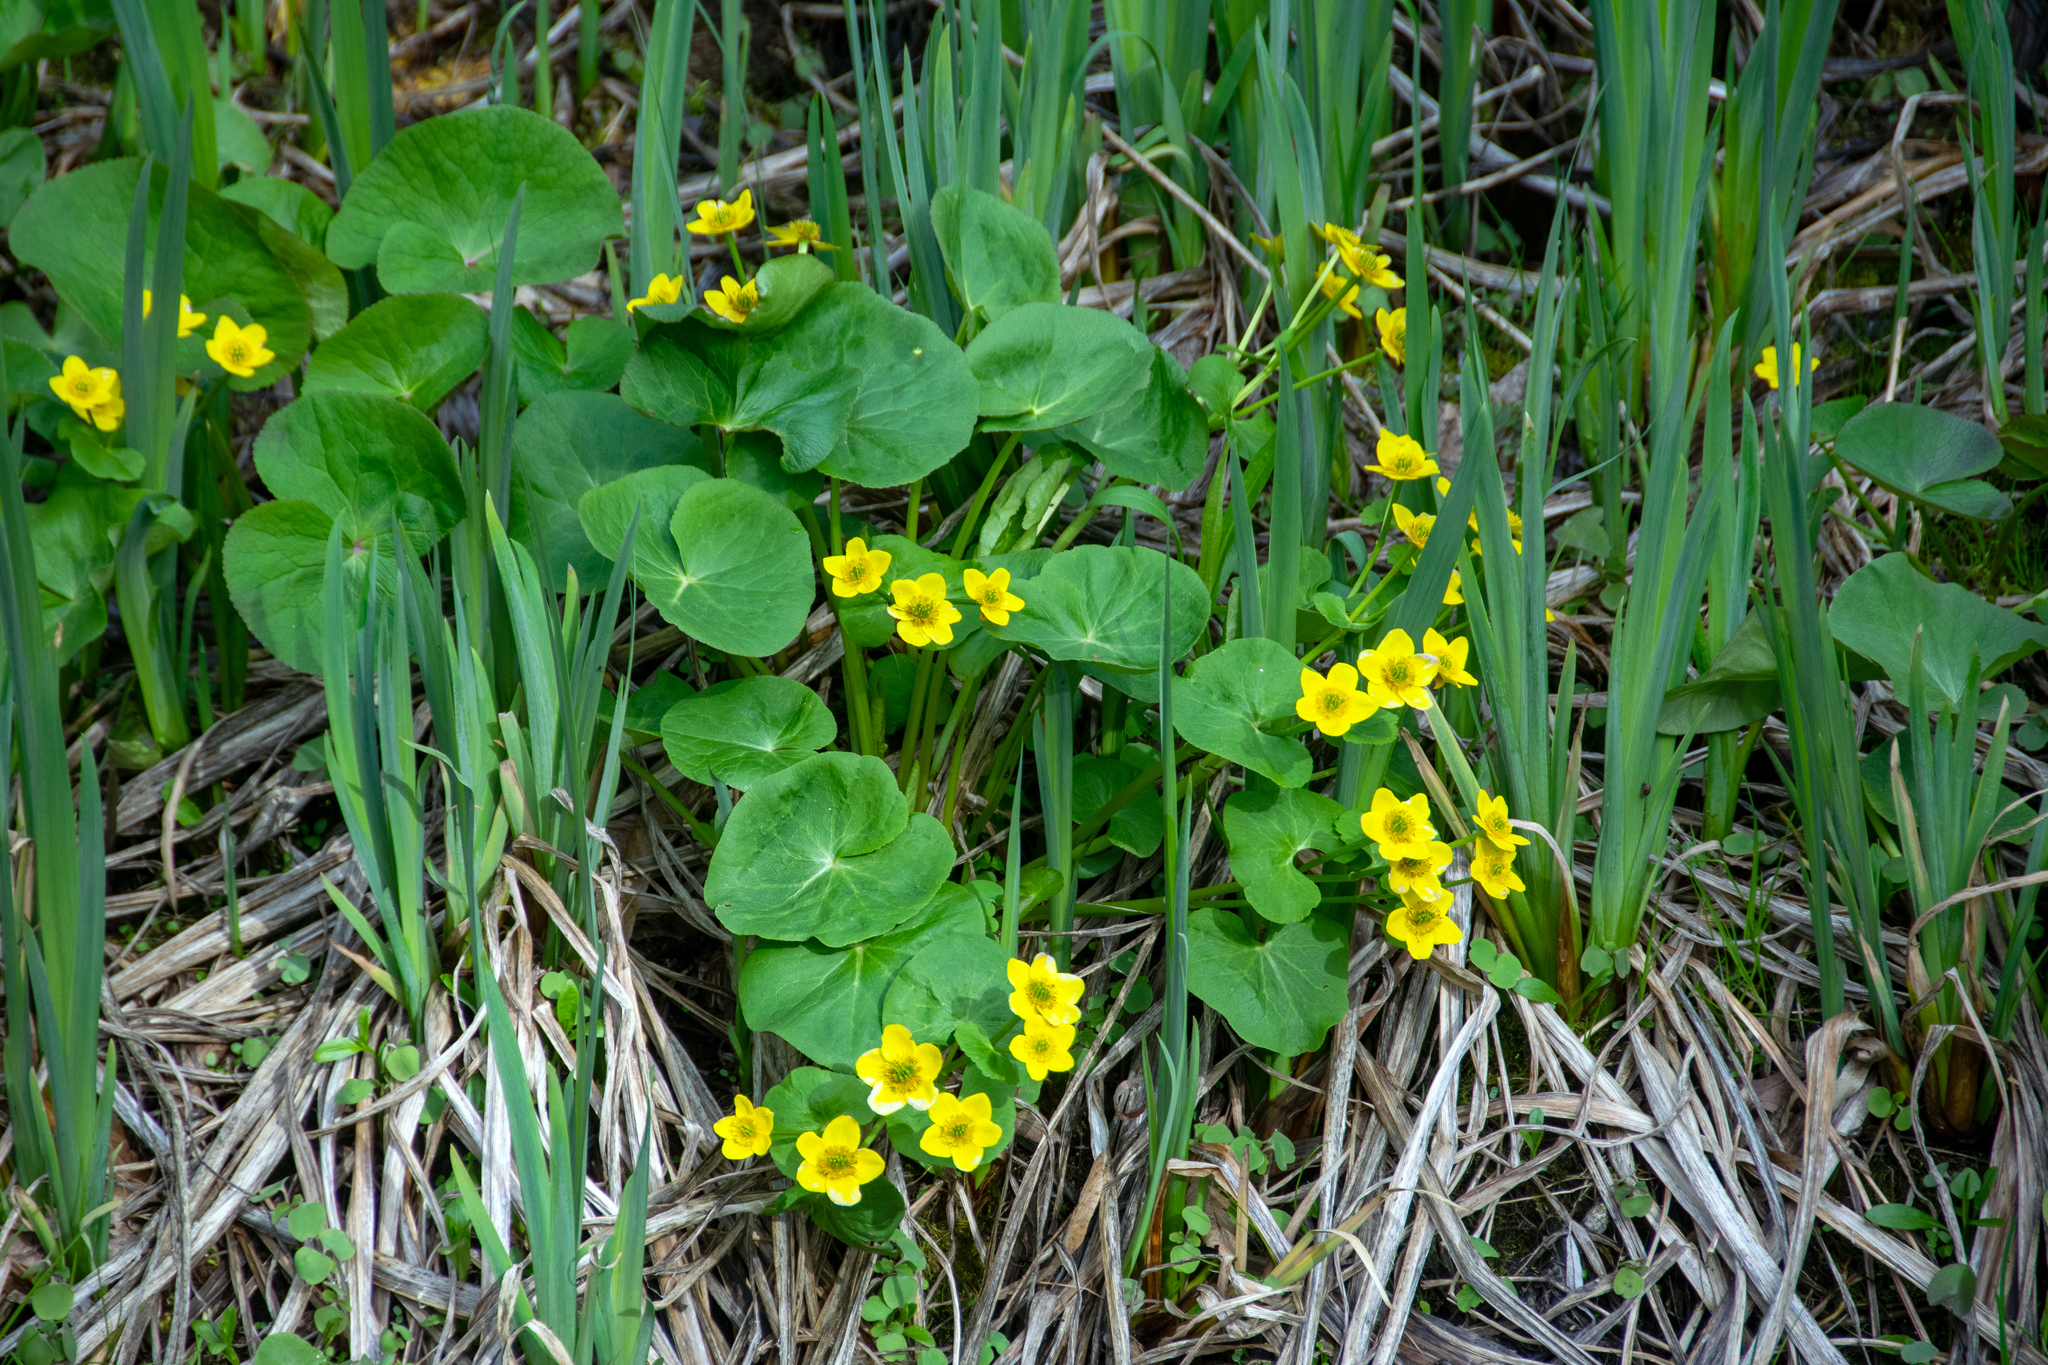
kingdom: Plantae
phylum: Tracheophyta
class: Magnoliopsida
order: Ranunculales
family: Ranunculaceae
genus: Caltha
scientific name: Caltha palustris
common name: Marsh marigold
